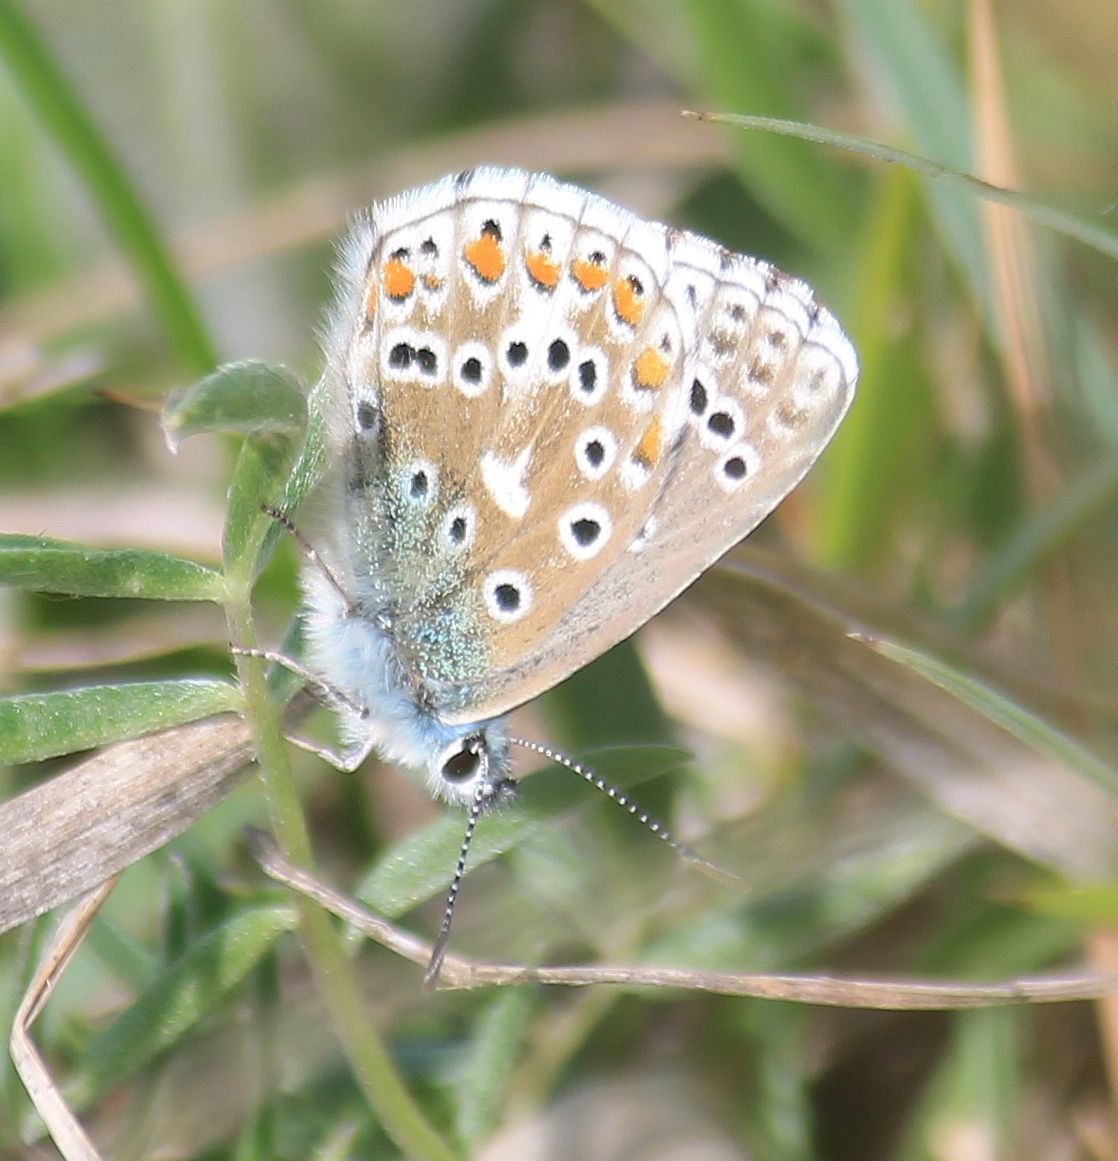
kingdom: Animalia
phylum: Arthropoda
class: Insecta
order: Lepidoptera
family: Lycaenidae
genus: Lysandra
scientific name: Lysandra bellargus
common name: Adonis blue
